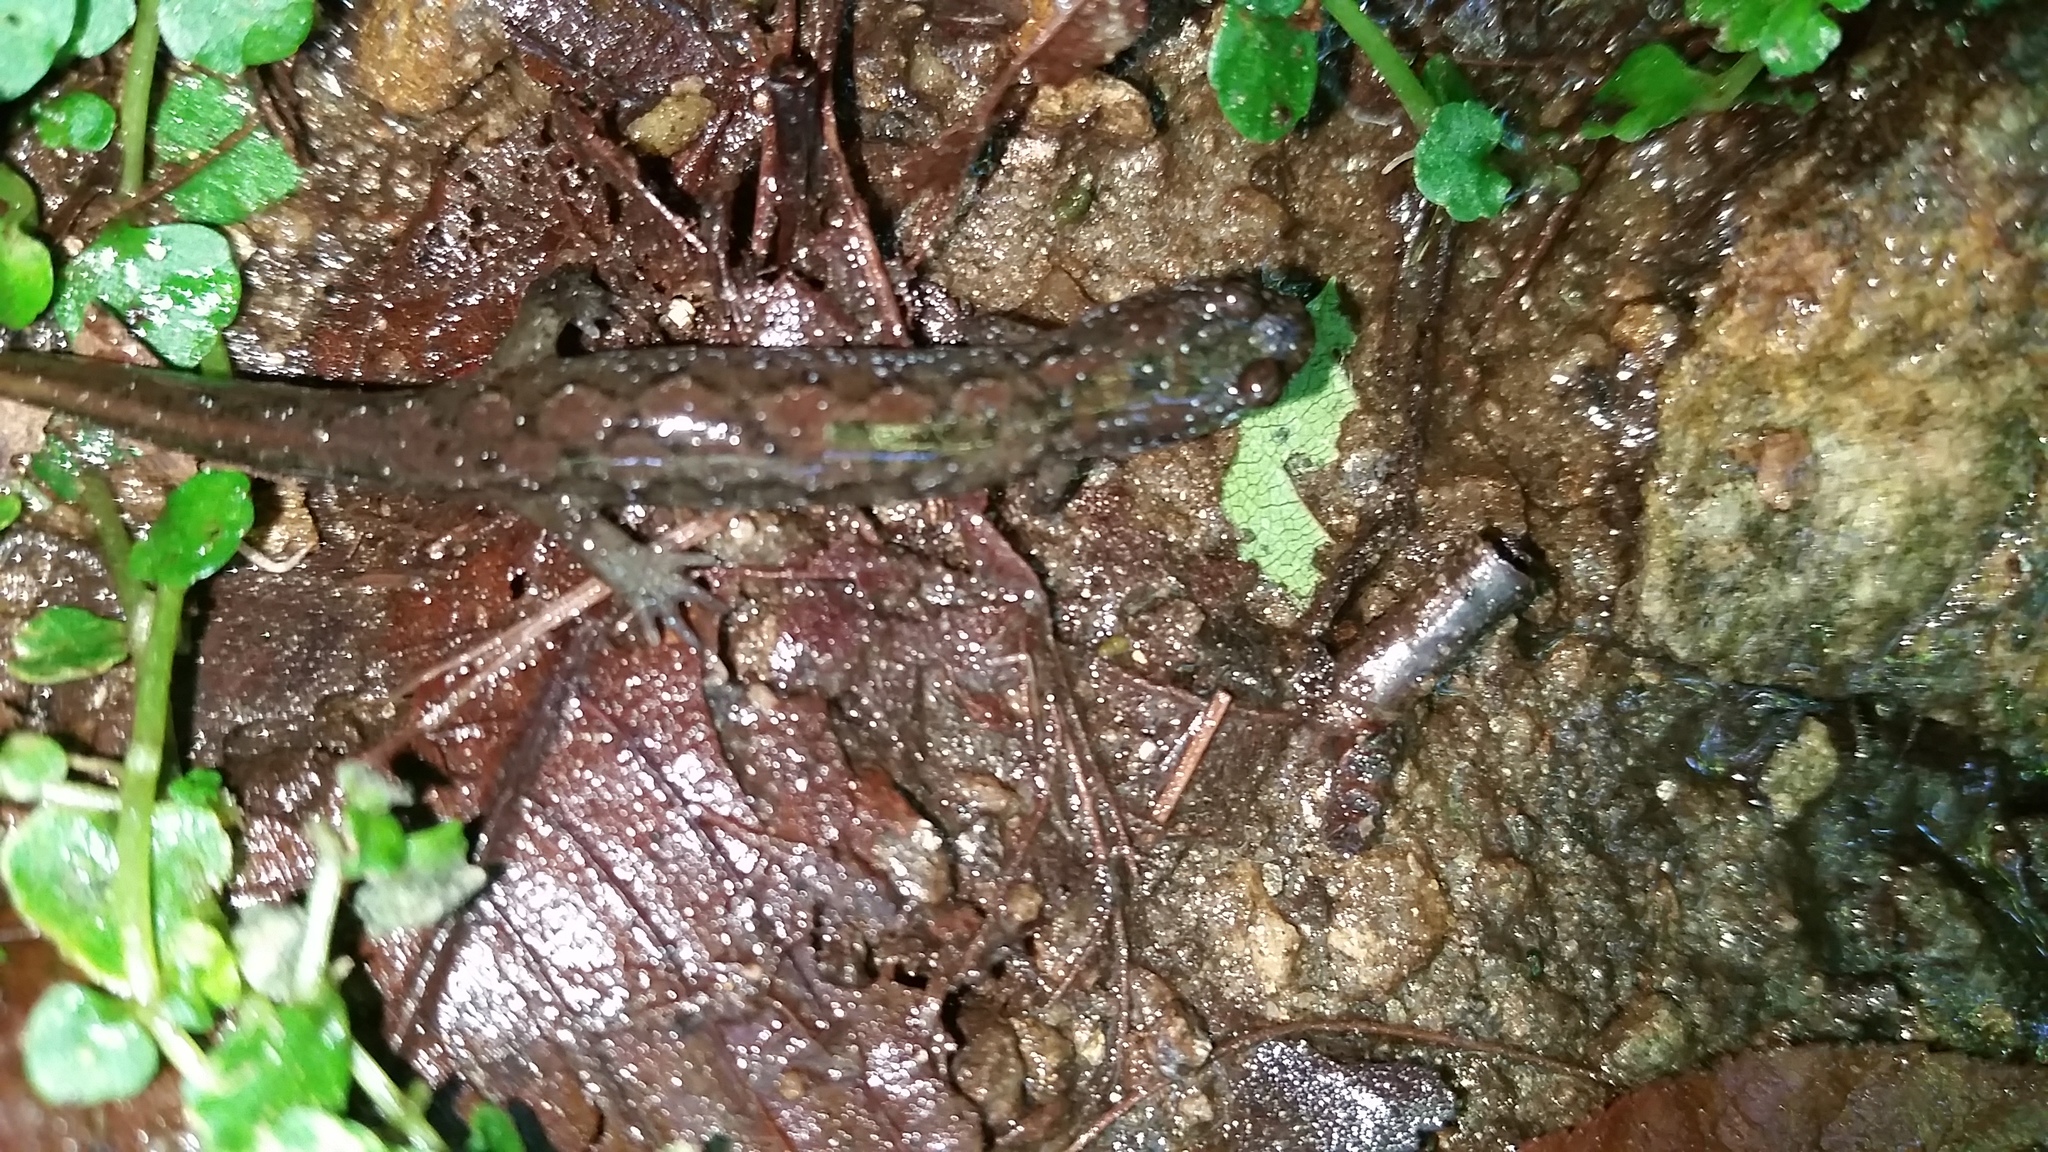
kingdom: Animalia
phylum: Chordata
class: Amphibia
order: Caudata
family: Plethodontidae
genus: Desmognathus
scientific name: Desmognathus
